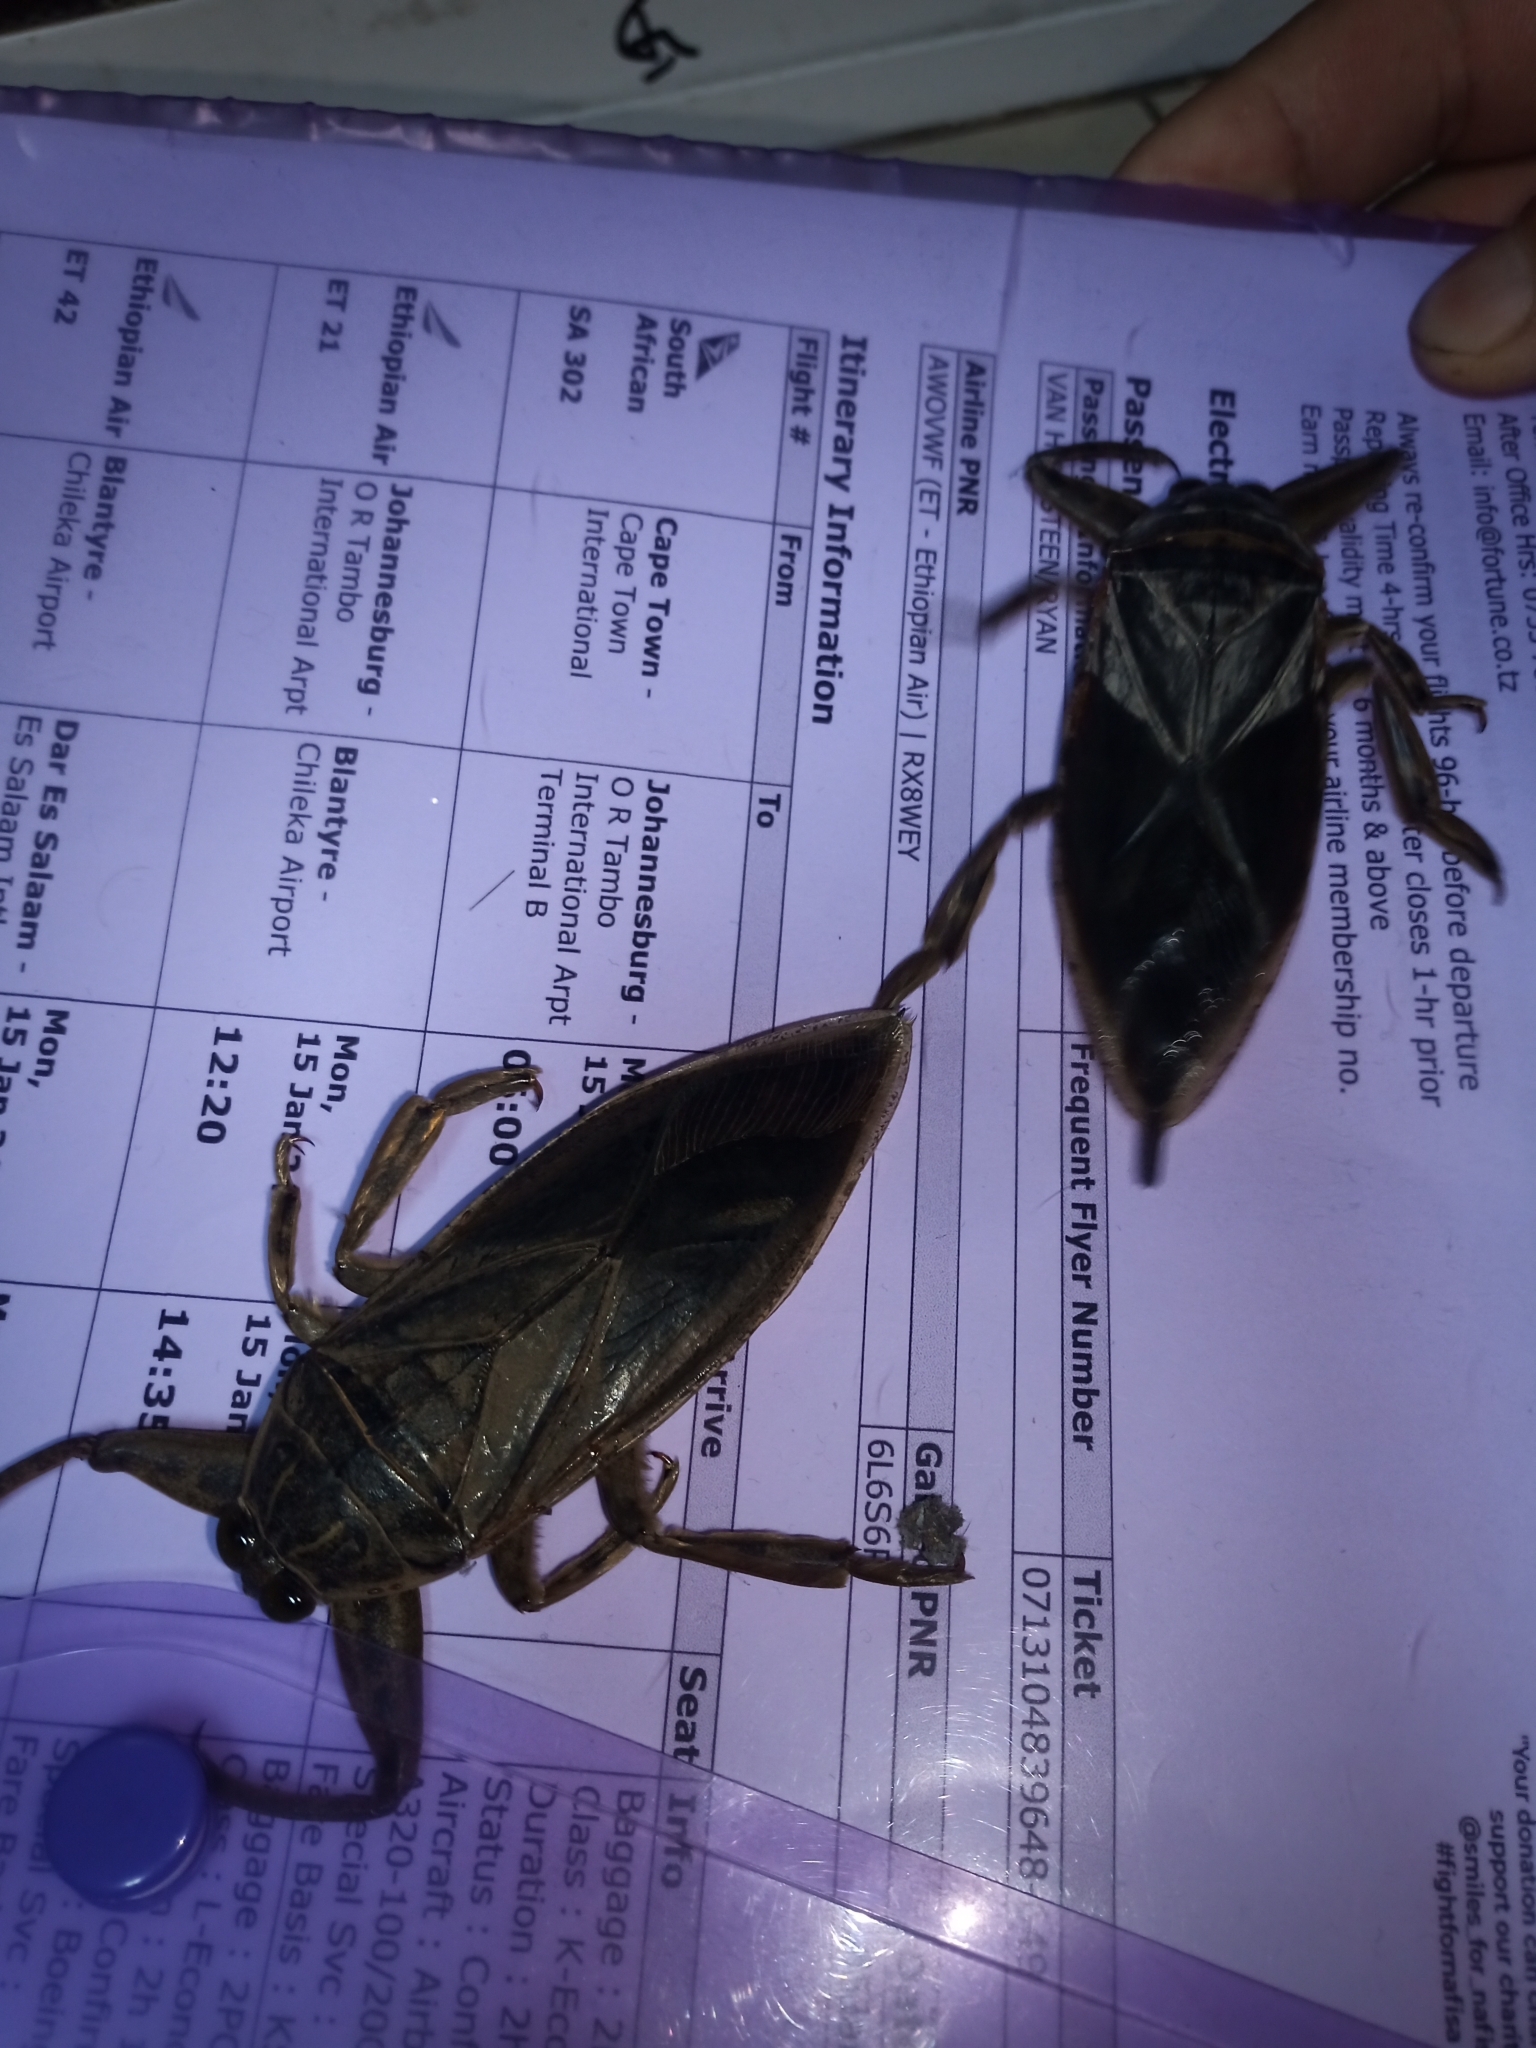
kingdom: Animalia
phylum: Arthropoda
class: Insecta
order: Hemiptera
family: Belostomatidae
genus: Lethocerus
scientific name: Lethocerus cordofanus
